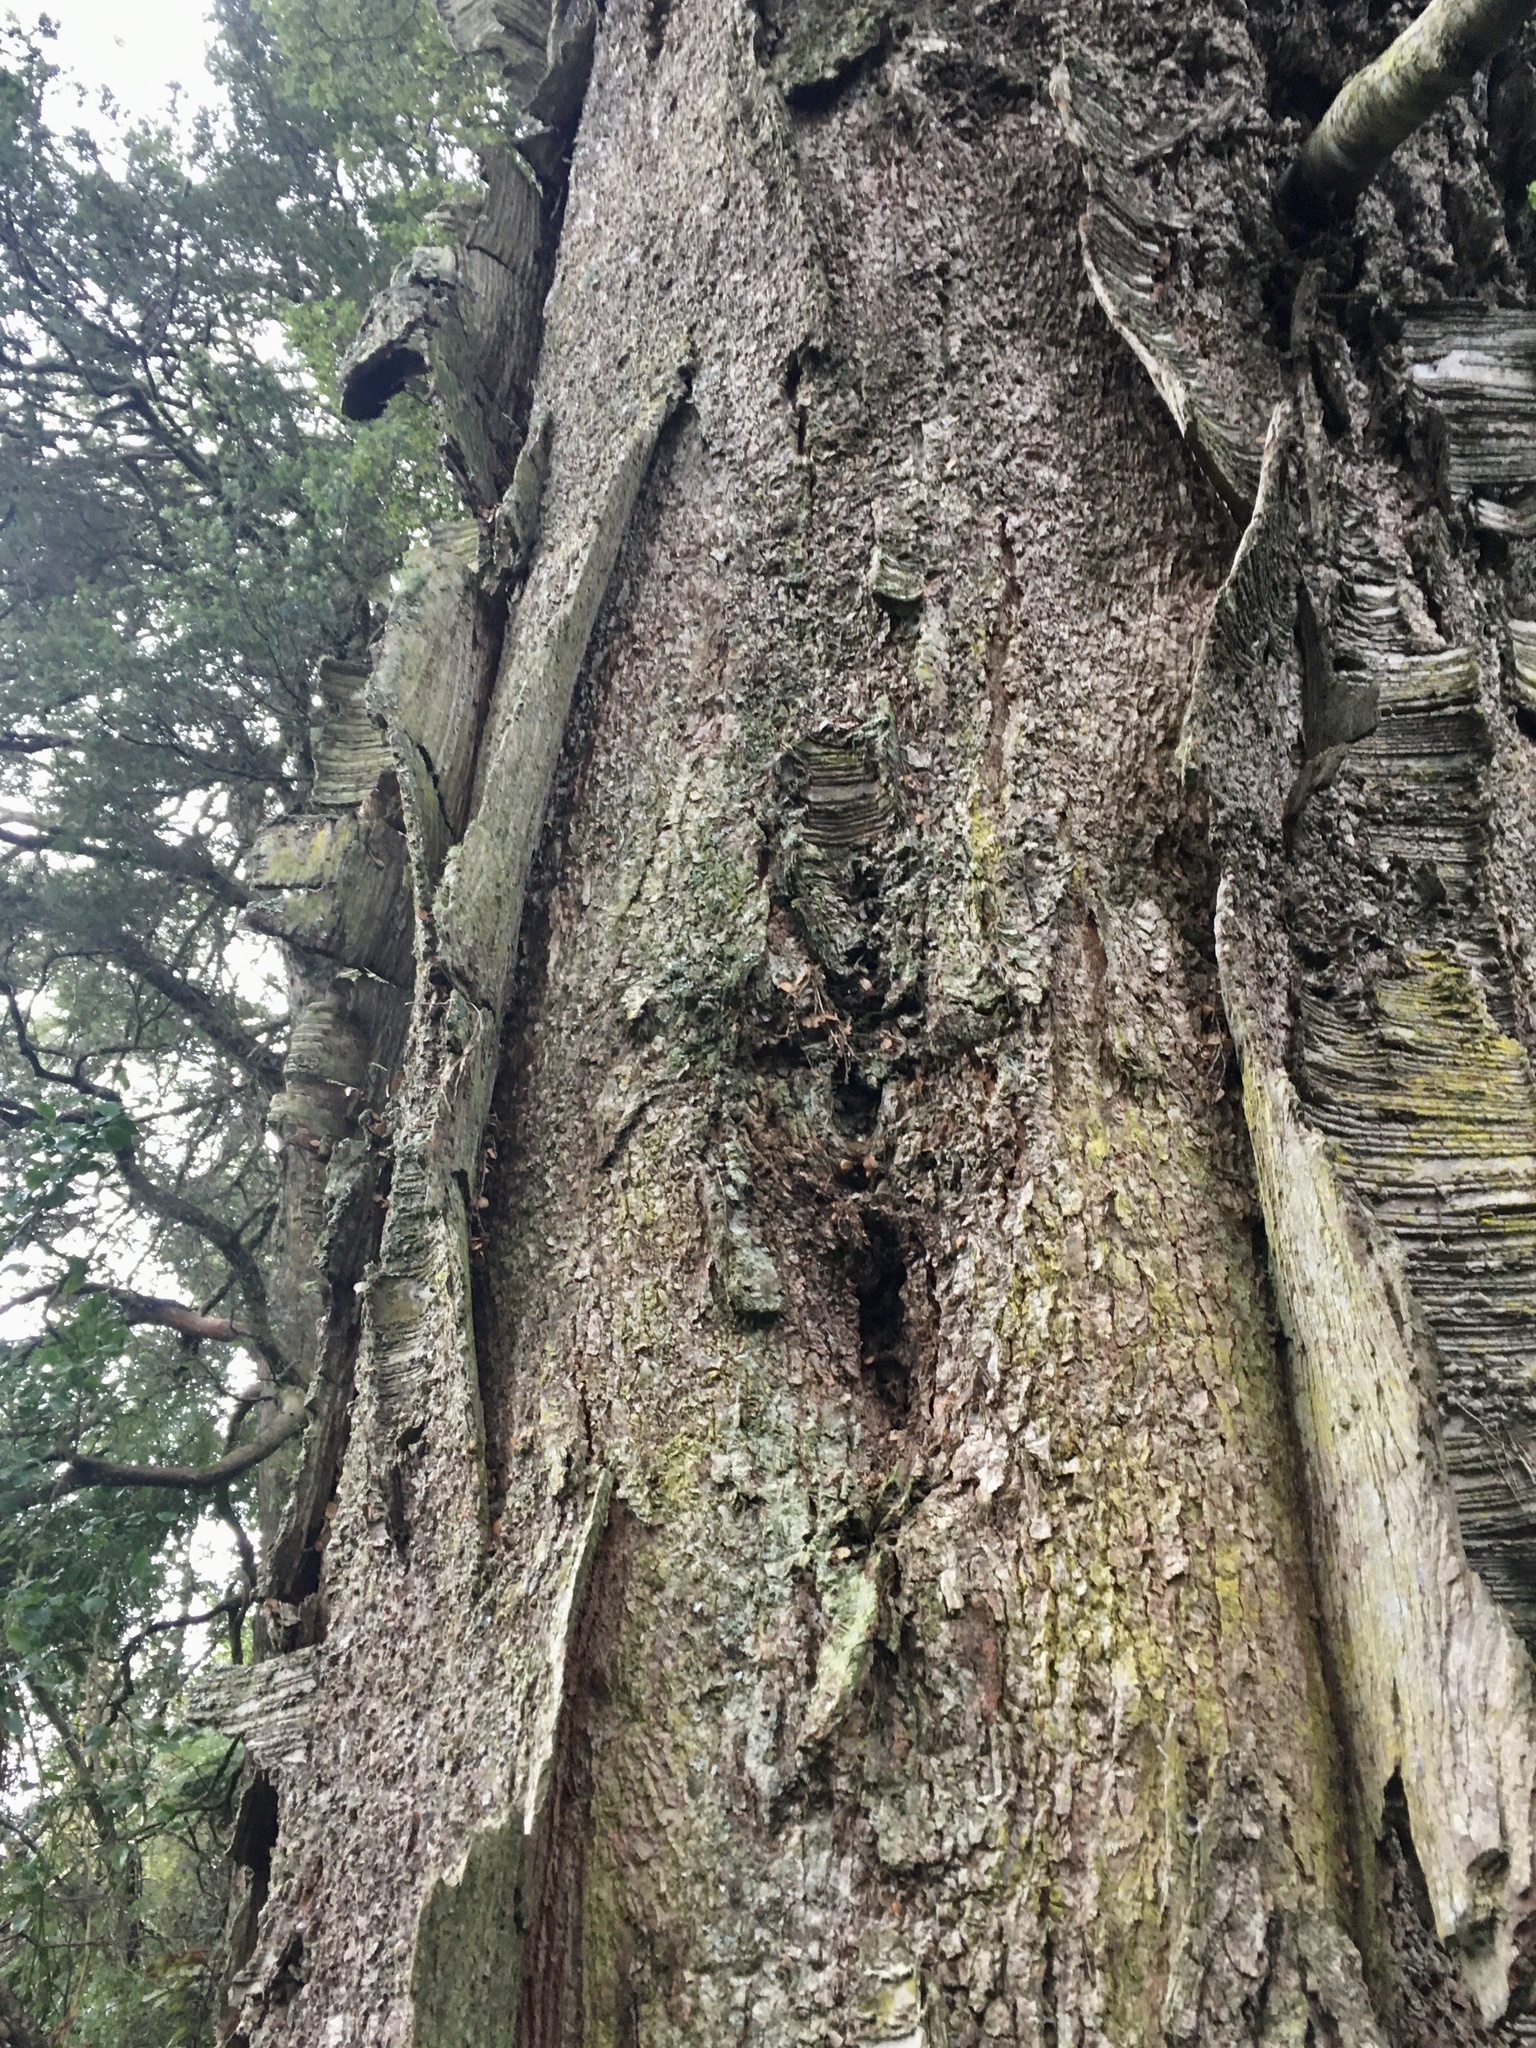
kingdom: Plantae
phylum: Tracheophyta
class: Magnoliopsida
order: Fagales
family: Nothofagaceae
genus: Nothofagus
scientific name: Nothofagus menziesii
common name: Silver beech
